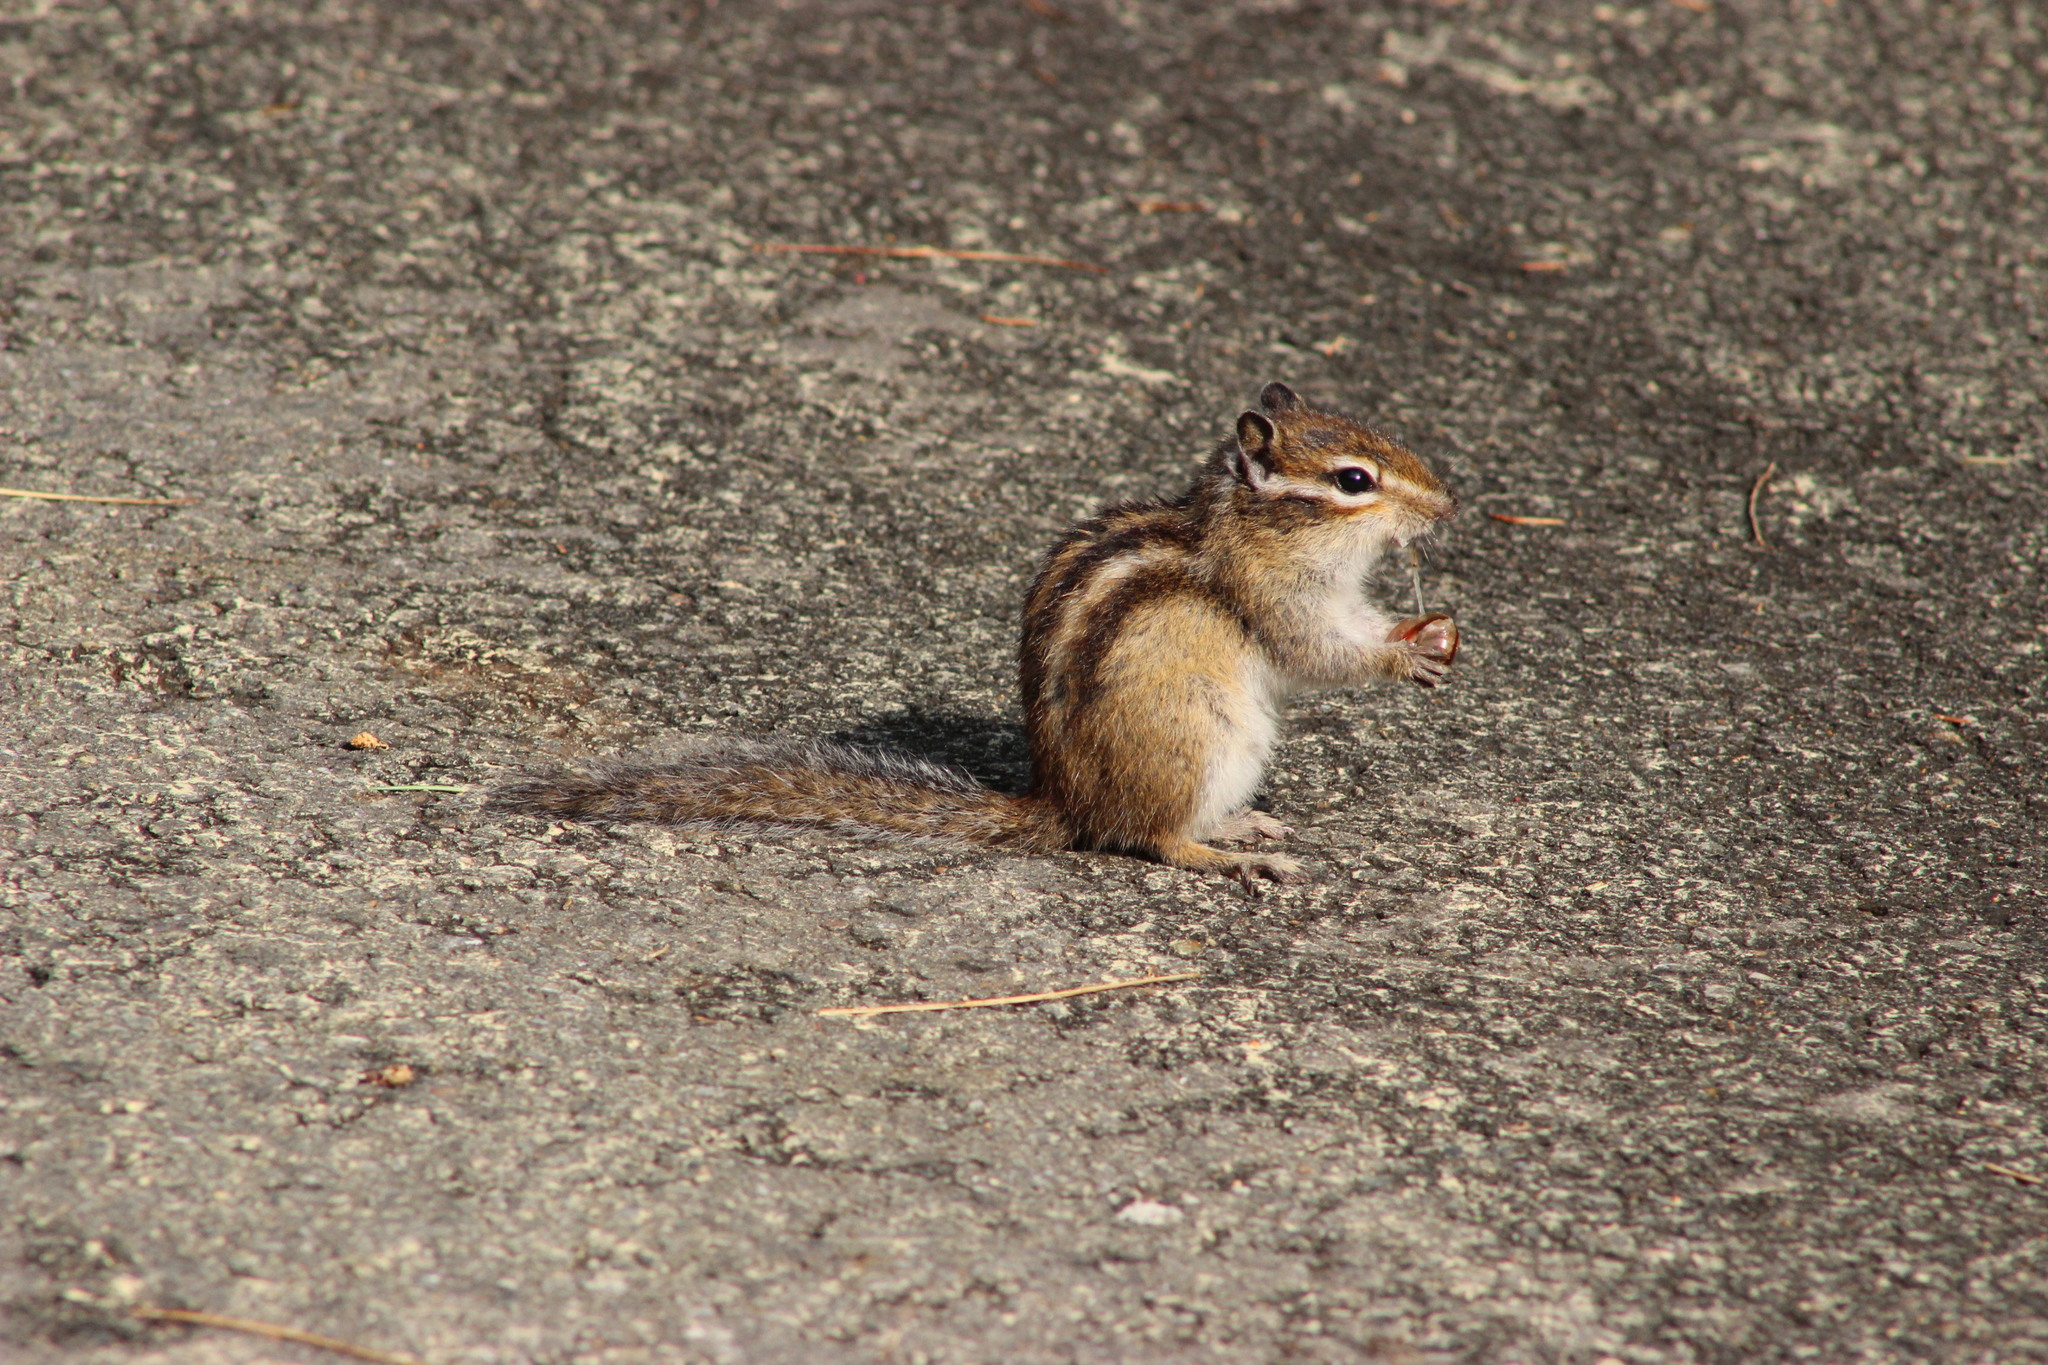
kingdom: Animalia
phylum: Chordata
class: Mammalia
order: Rodentia
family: Sciuridae
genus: Tamias
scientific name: Tamias sibiricus
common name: Siberian chipmunk
